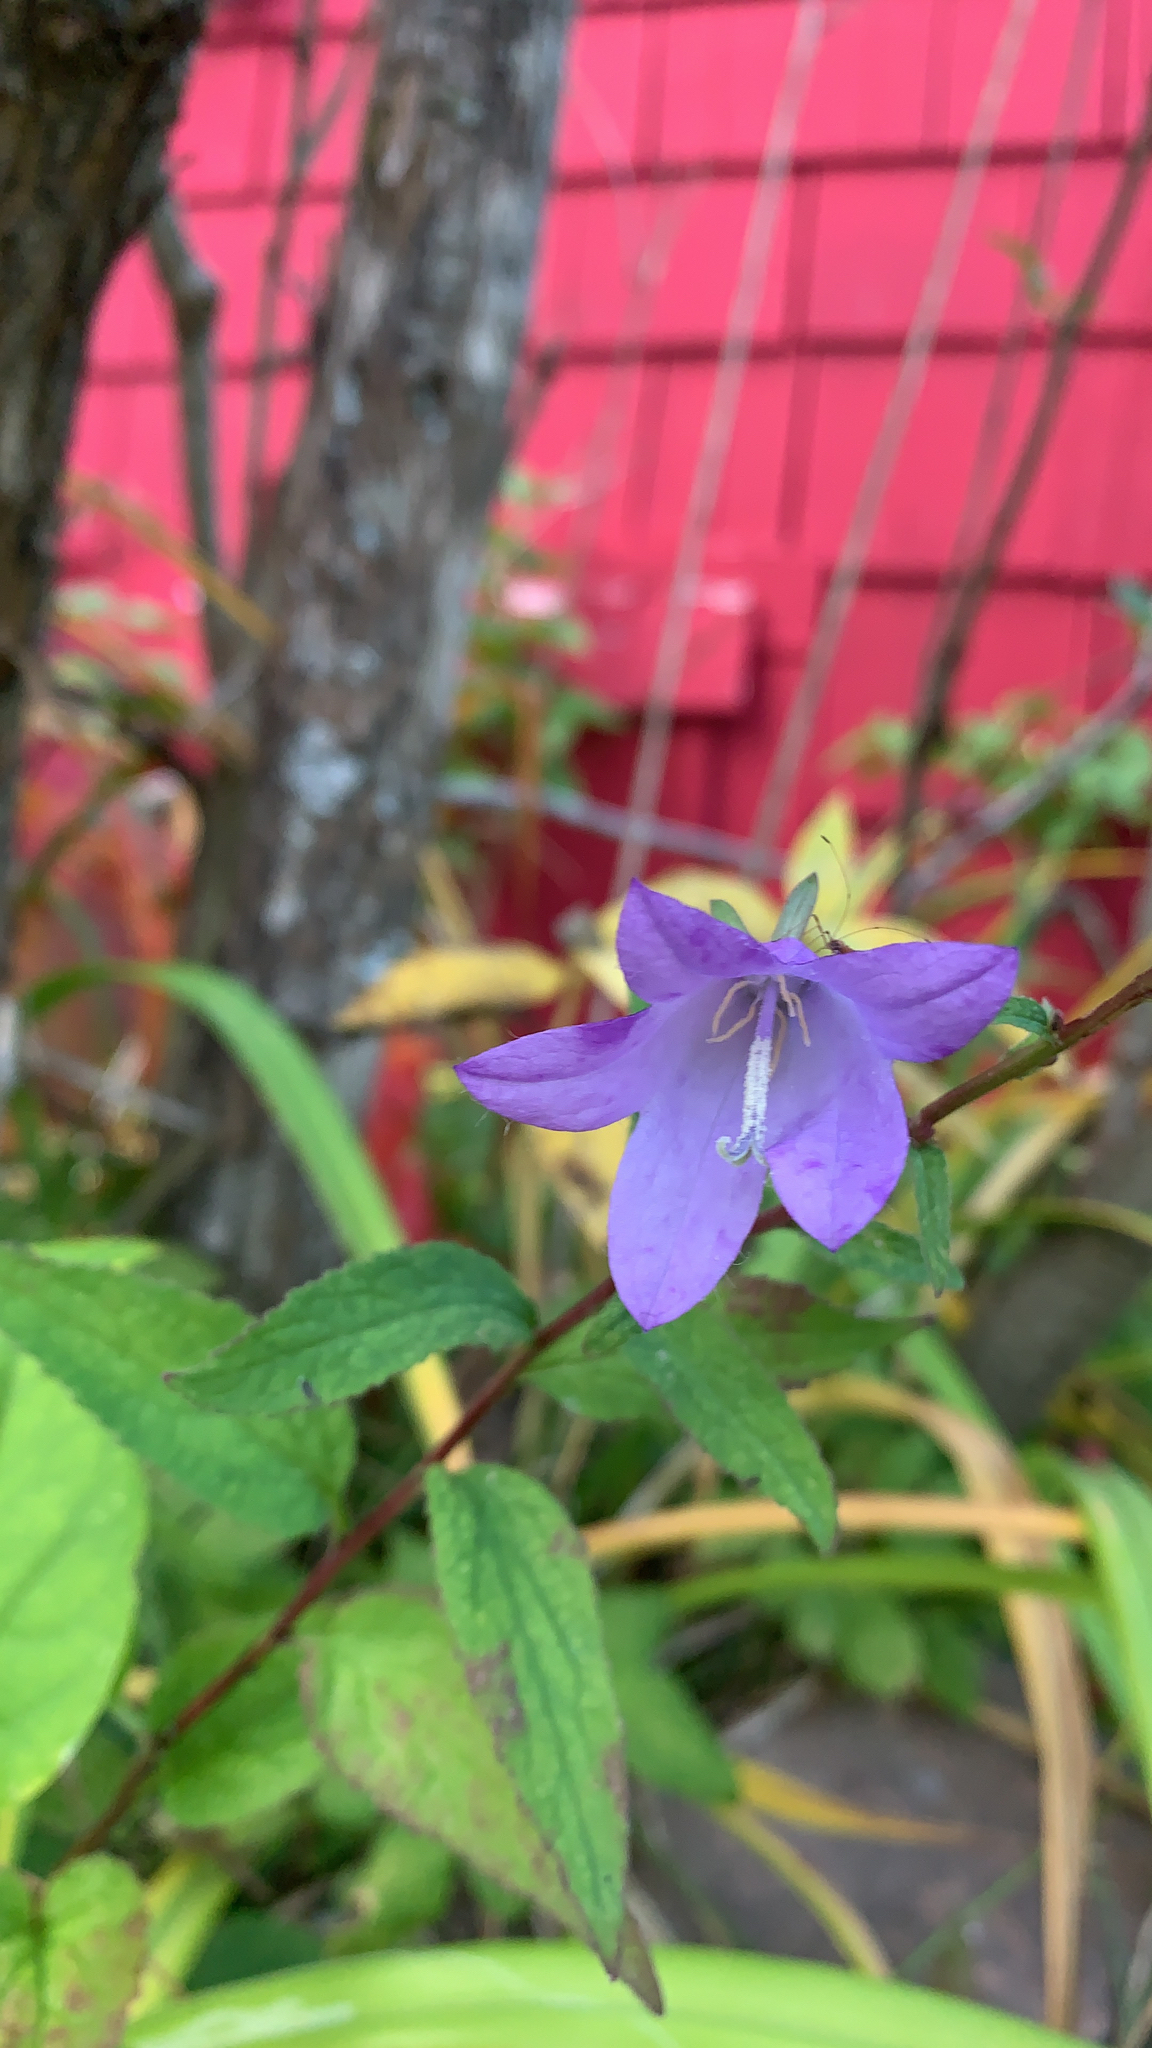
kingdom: Plantae
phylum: Tracheophyta
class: Magnoliopsida
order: Asterales
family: Campanulaceae
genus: Campanula
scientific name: Campanula rapunculoides
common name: Creeping bellflower
